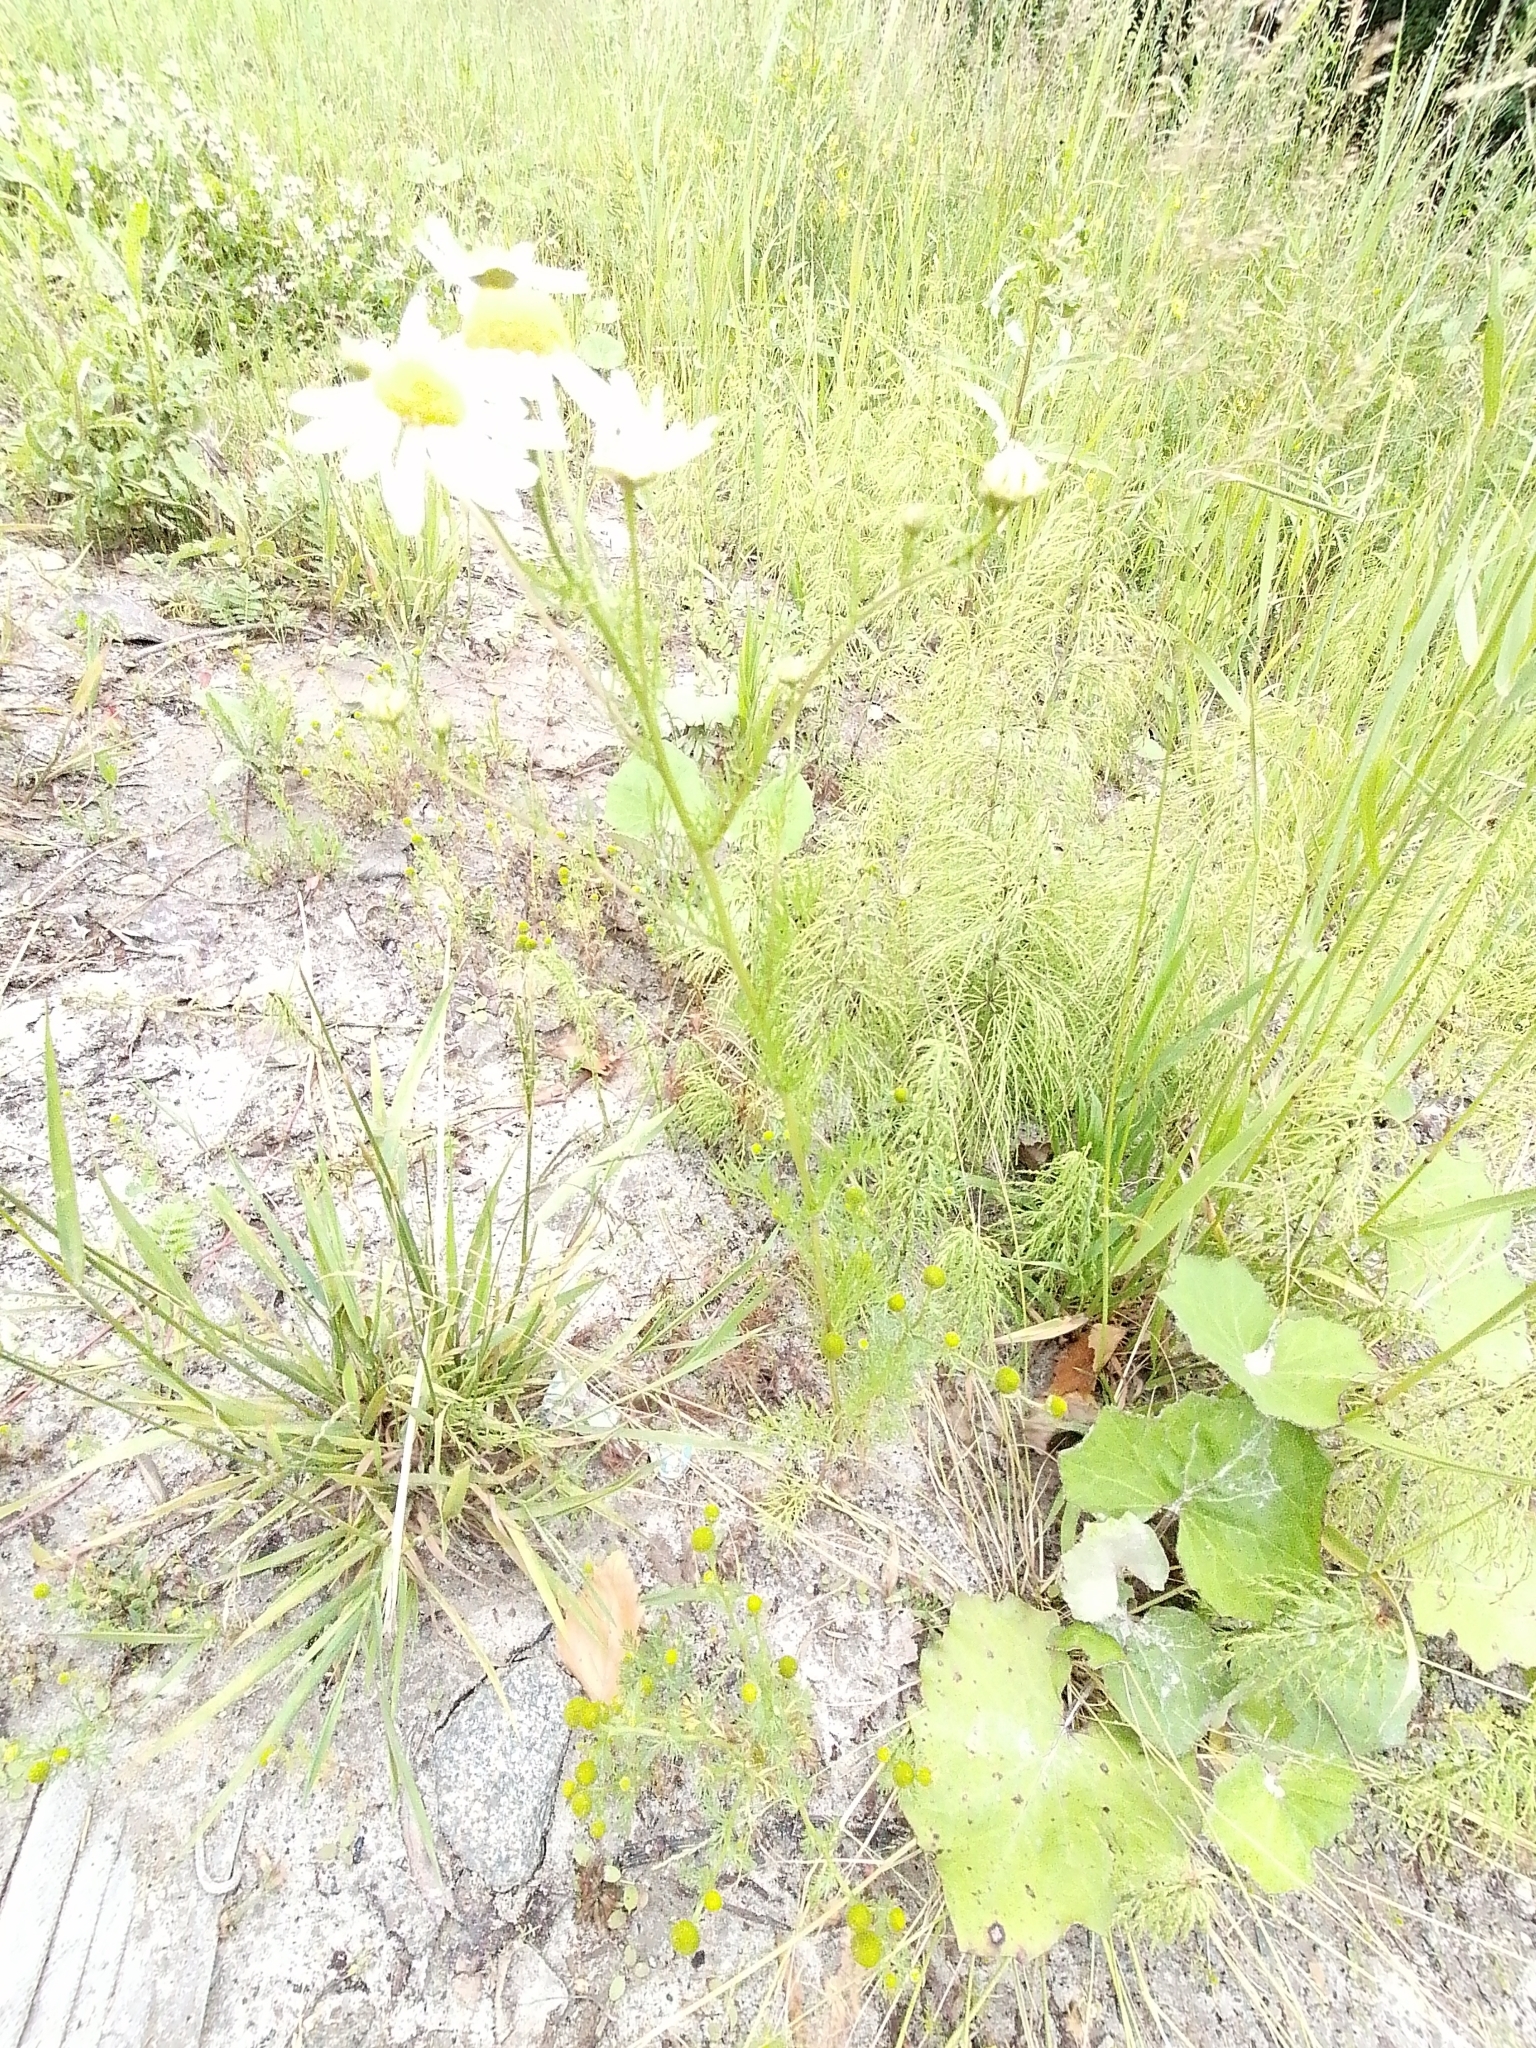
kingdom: Plantae
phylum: Tracheophyta
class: Magnoliopsida
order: Asterales
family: Asteraceae
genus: Tripleurospermum
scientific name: Tripleurospermum inodorum
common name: Scentless mayweed
